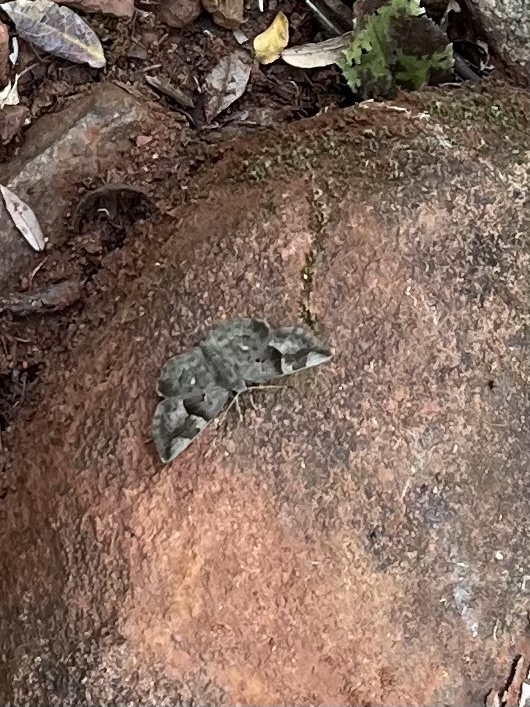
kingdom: Animalia
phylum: Arthropoda
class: Insecta
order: Lepidoptera
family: Hesperiidae
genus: Sarangesa
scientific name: Sarangesa motozi
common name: Forest elfin
